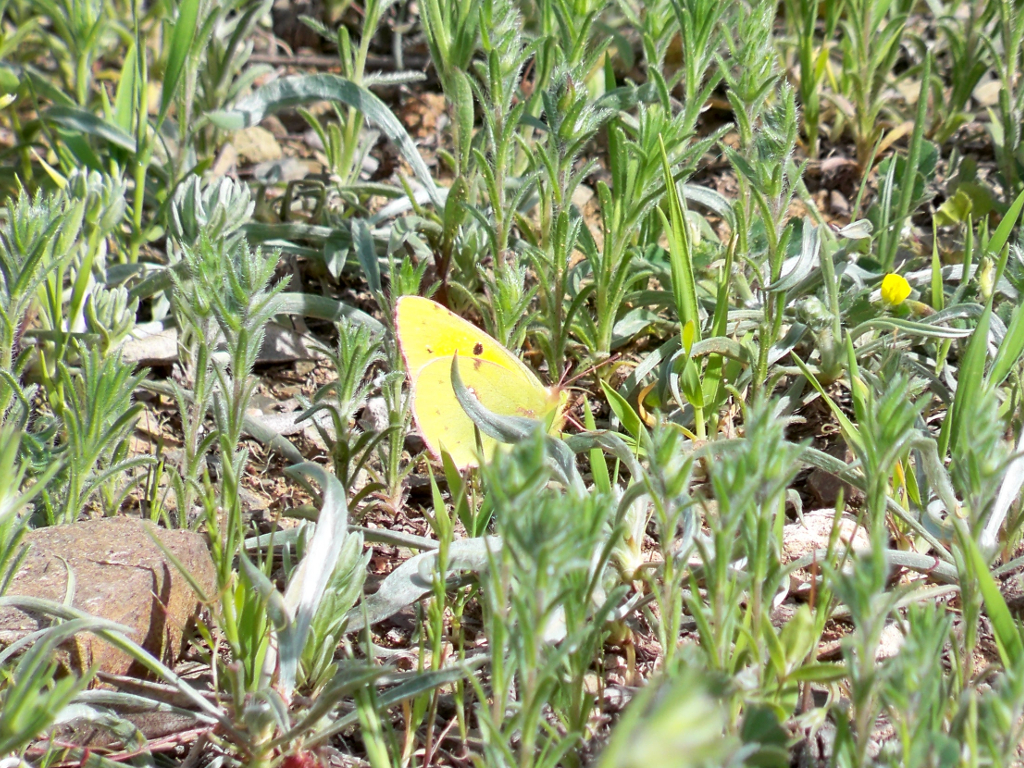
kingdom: Animalia
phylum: Arthropoda
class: Insecta
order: Lepidoptera
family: Pieridae
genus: Colias
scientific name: Colias croceus
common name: Clouded yellow
